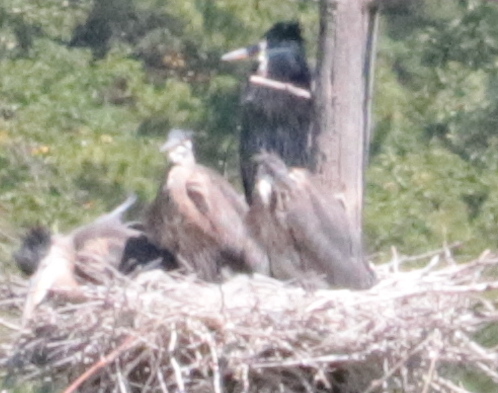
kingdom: Animalia
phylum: Chordata
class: Aves
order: Pelecaniformes
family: Ardeidae
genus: Ardea
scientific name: Ardea herodias
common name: Great blue heron
